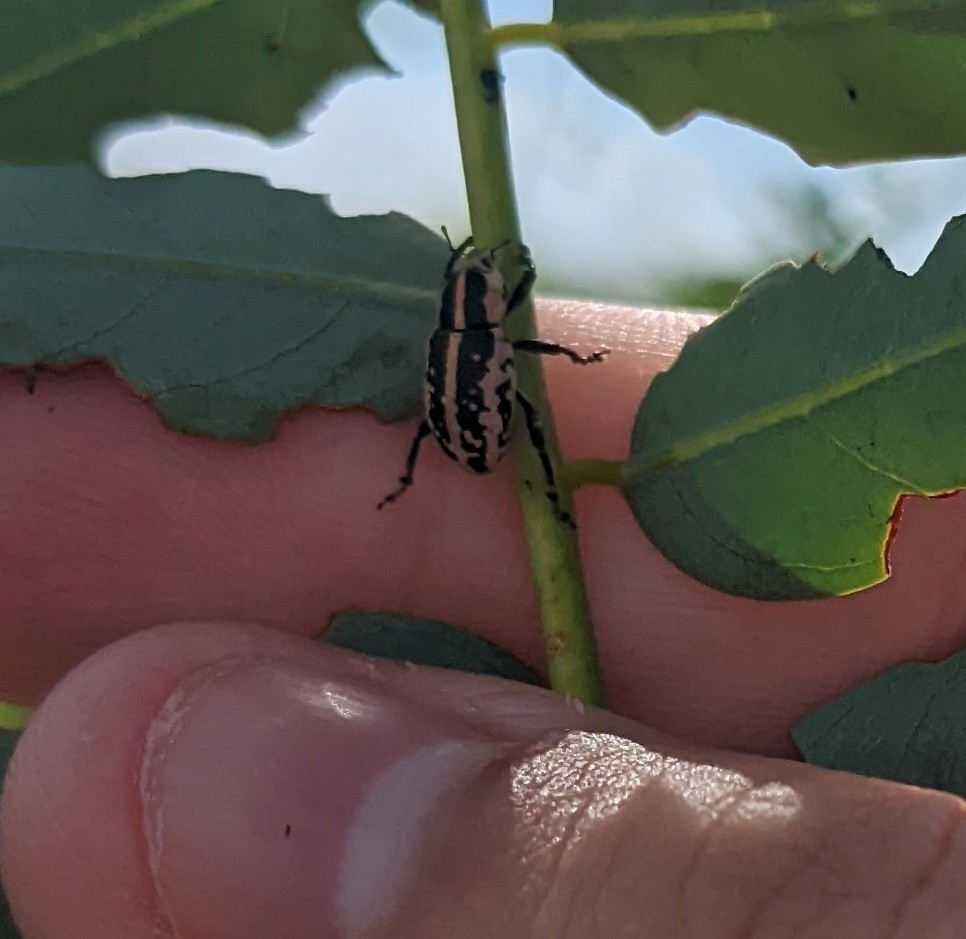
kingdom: Animalia
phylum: Arthropoda
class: Insecta
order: Coleoptera
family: Curculionidae
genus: Eudiagogus
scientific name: Eudiagogus rosenschoeldi
